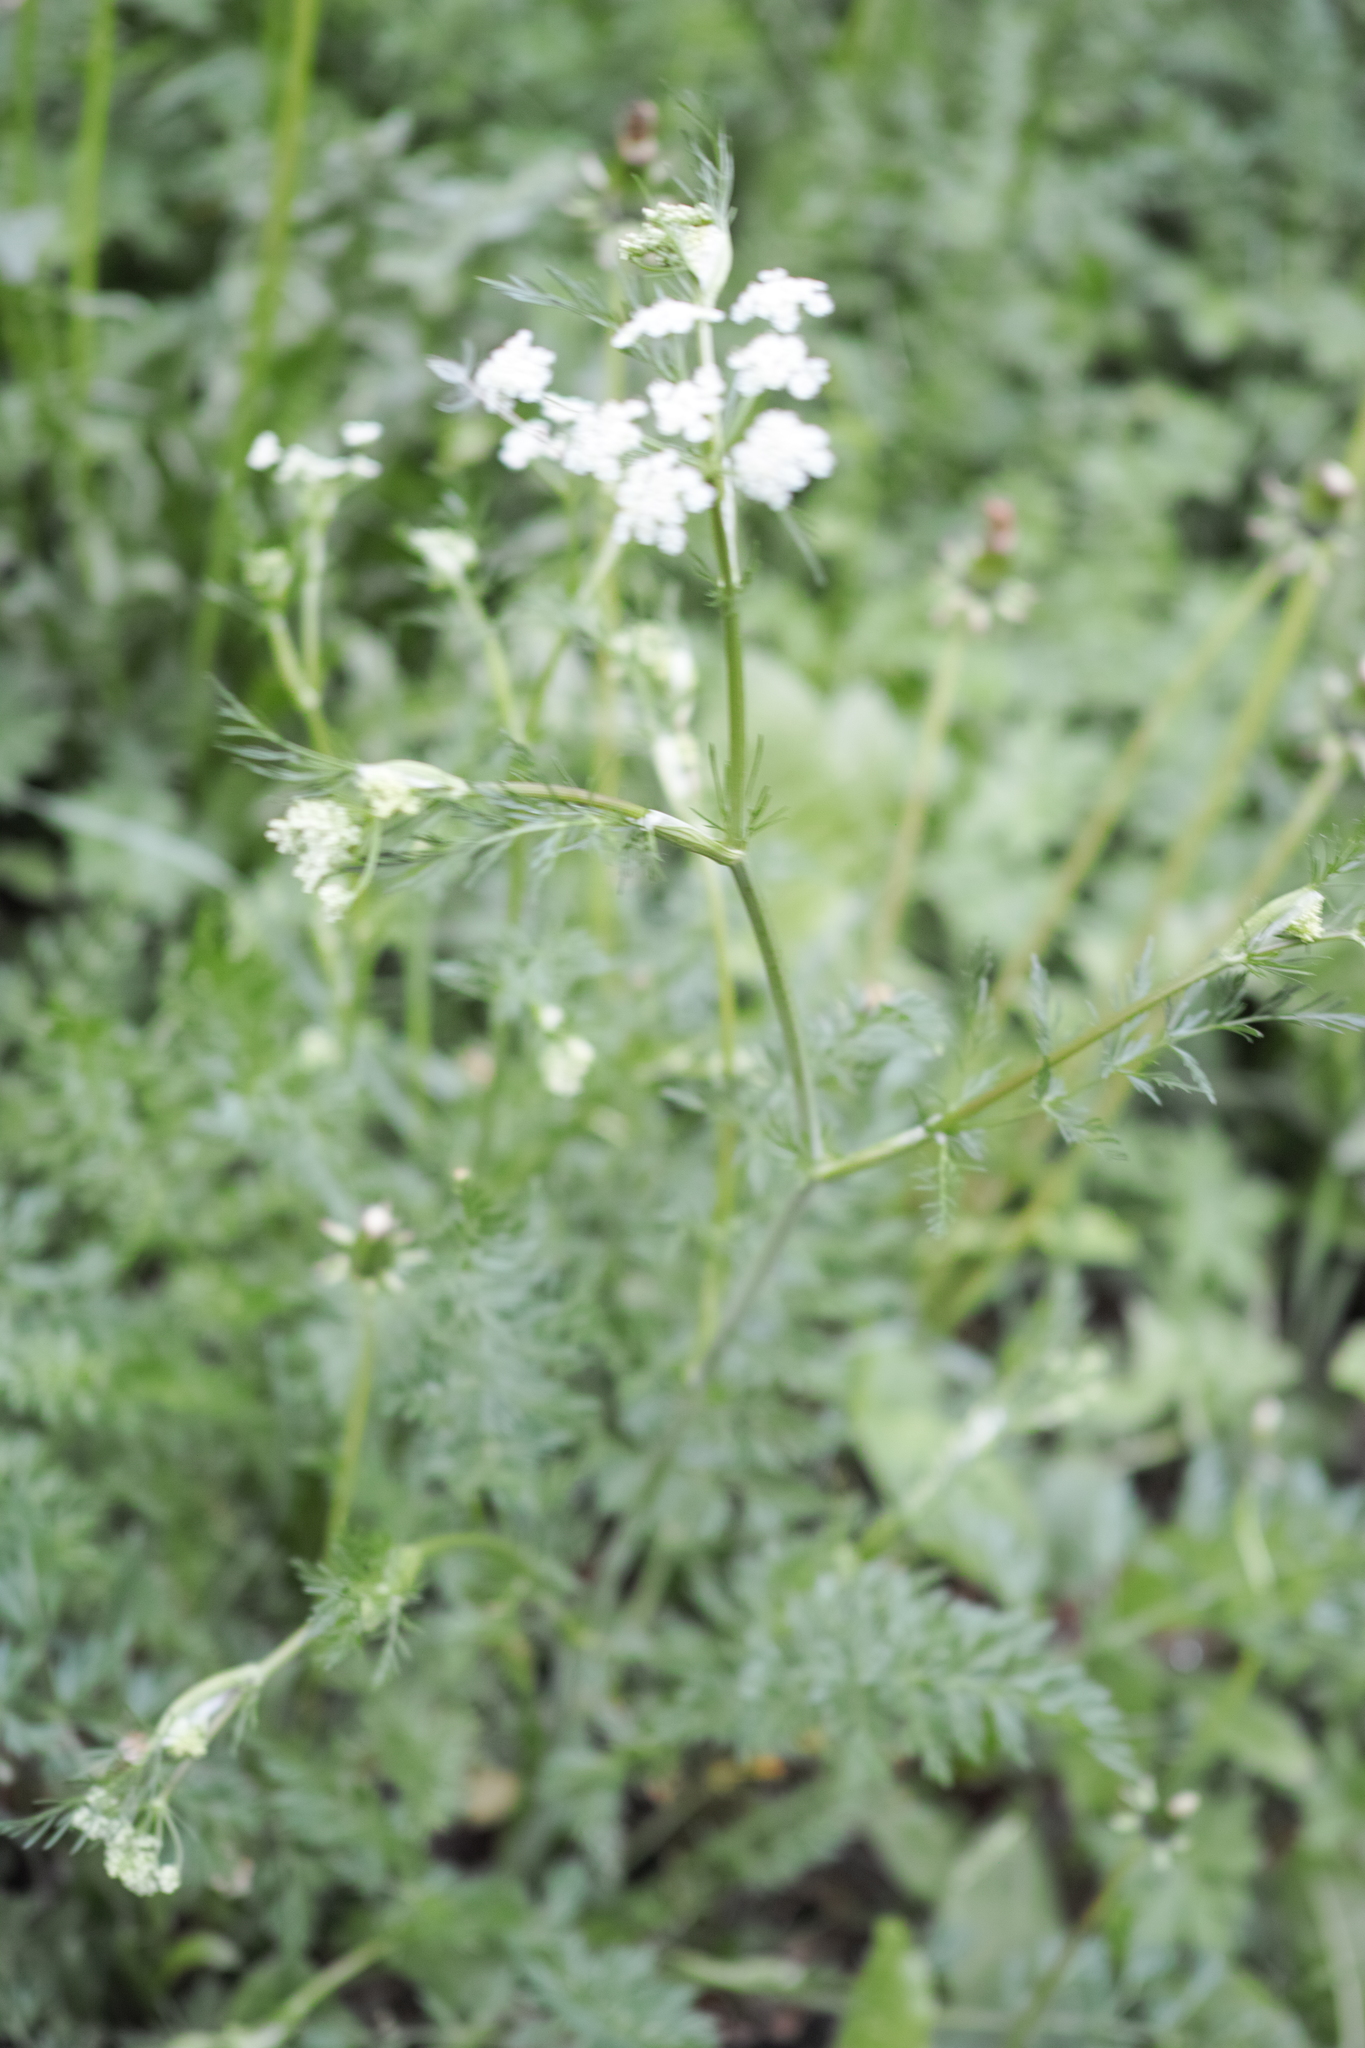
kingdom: Plantae
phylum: Tracheophyta
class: Magnoliopsida
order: Apiales
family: Apiaceae
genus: Carum
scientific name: Carum carvi
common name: Caraway
